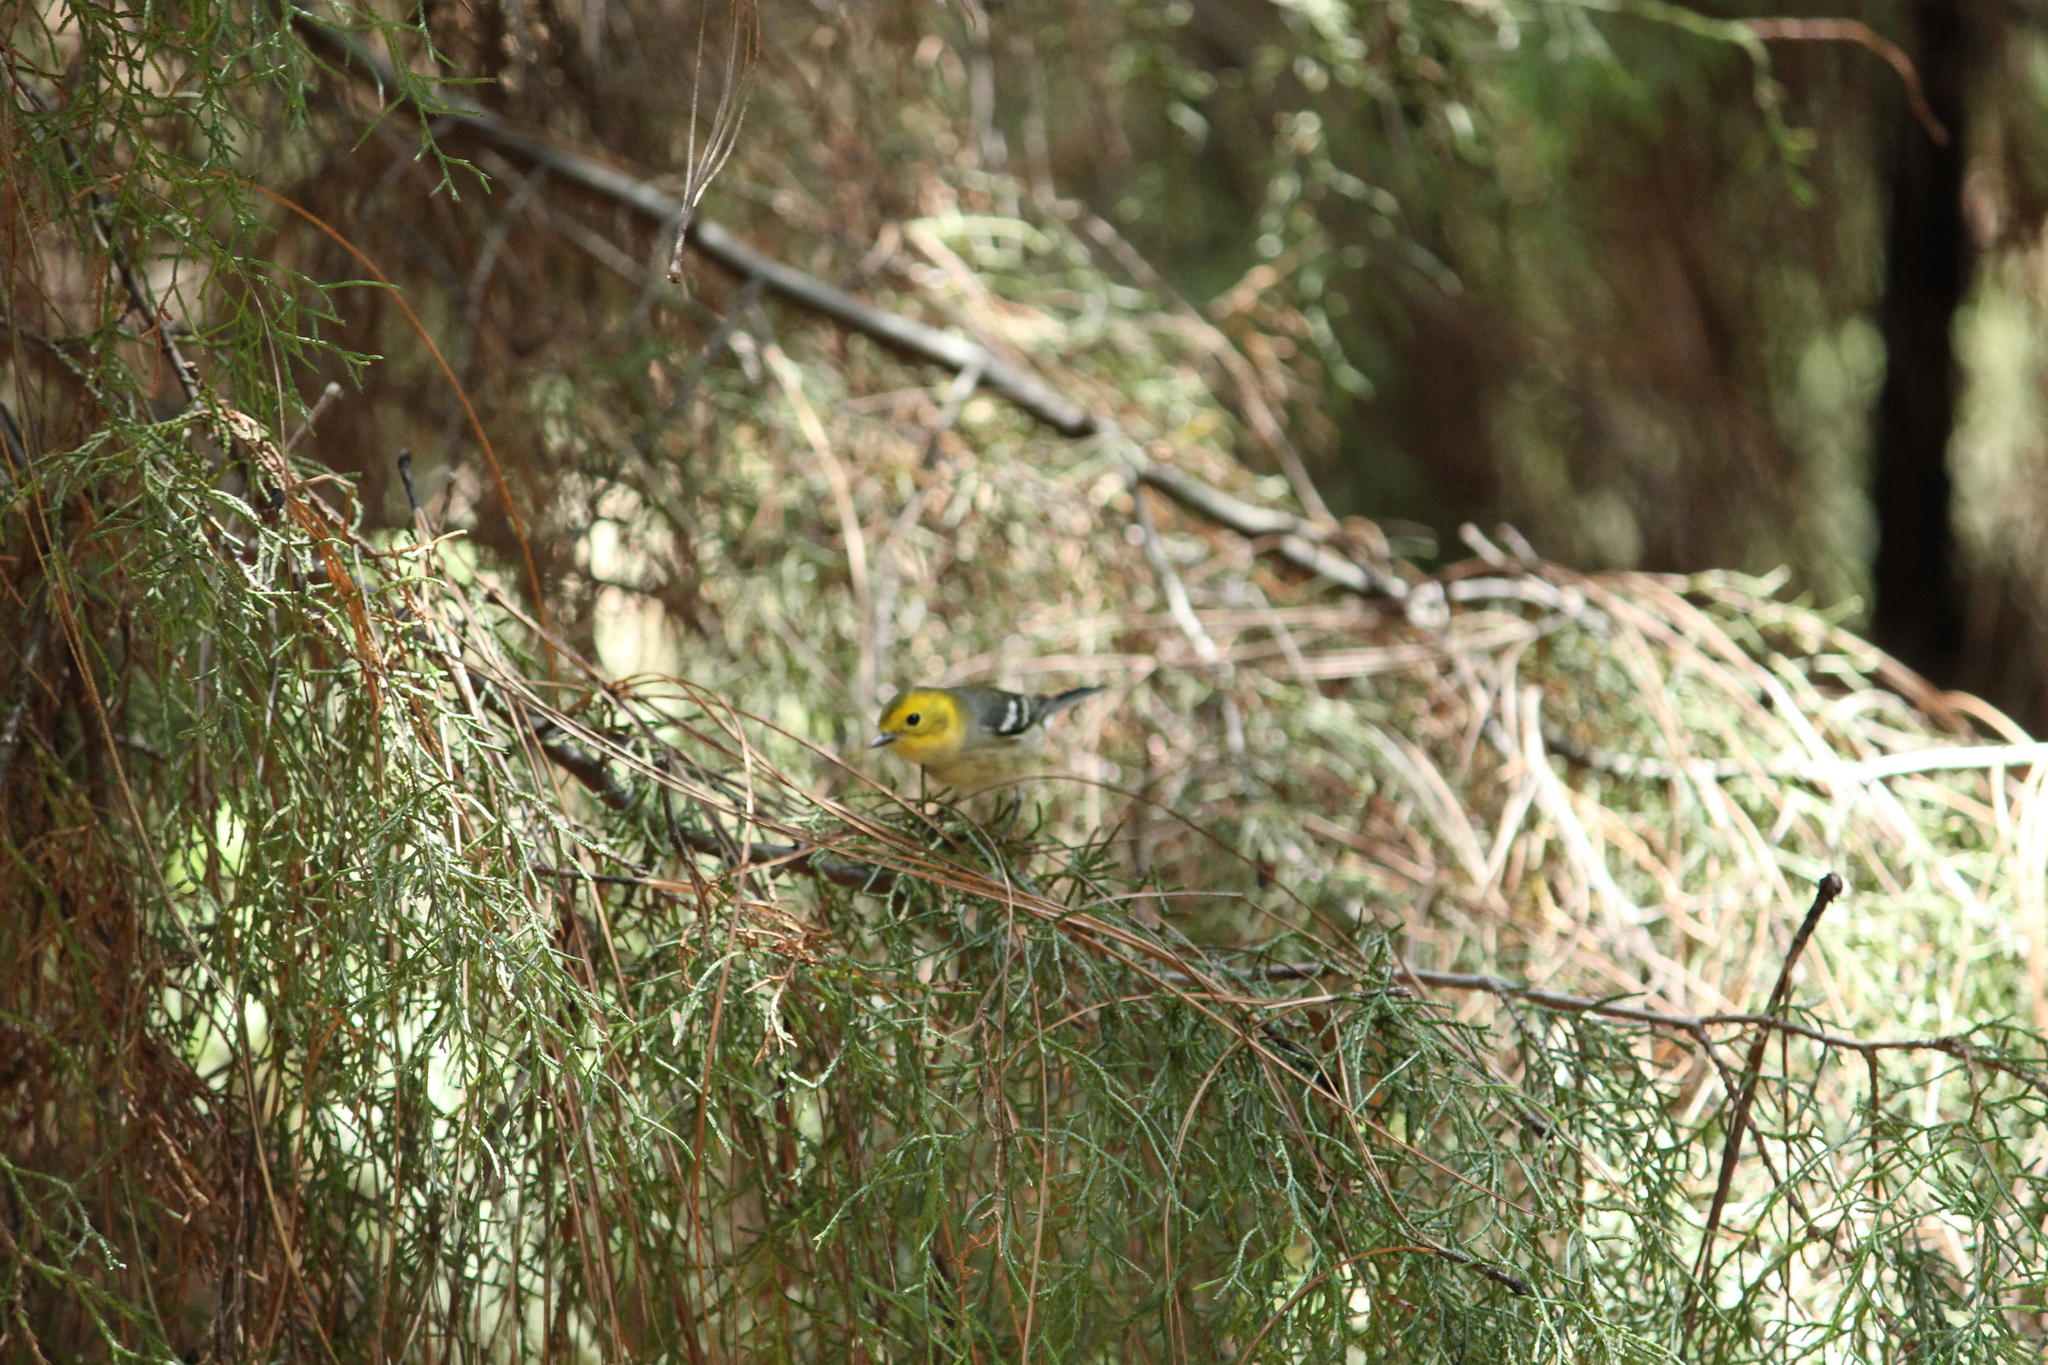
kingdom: Animalia
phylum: Chordata
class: Aves
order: Passeriformes
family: Parulidae
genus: Setophaga
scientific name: Setophaga occidentalis
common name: Hermit warbler
